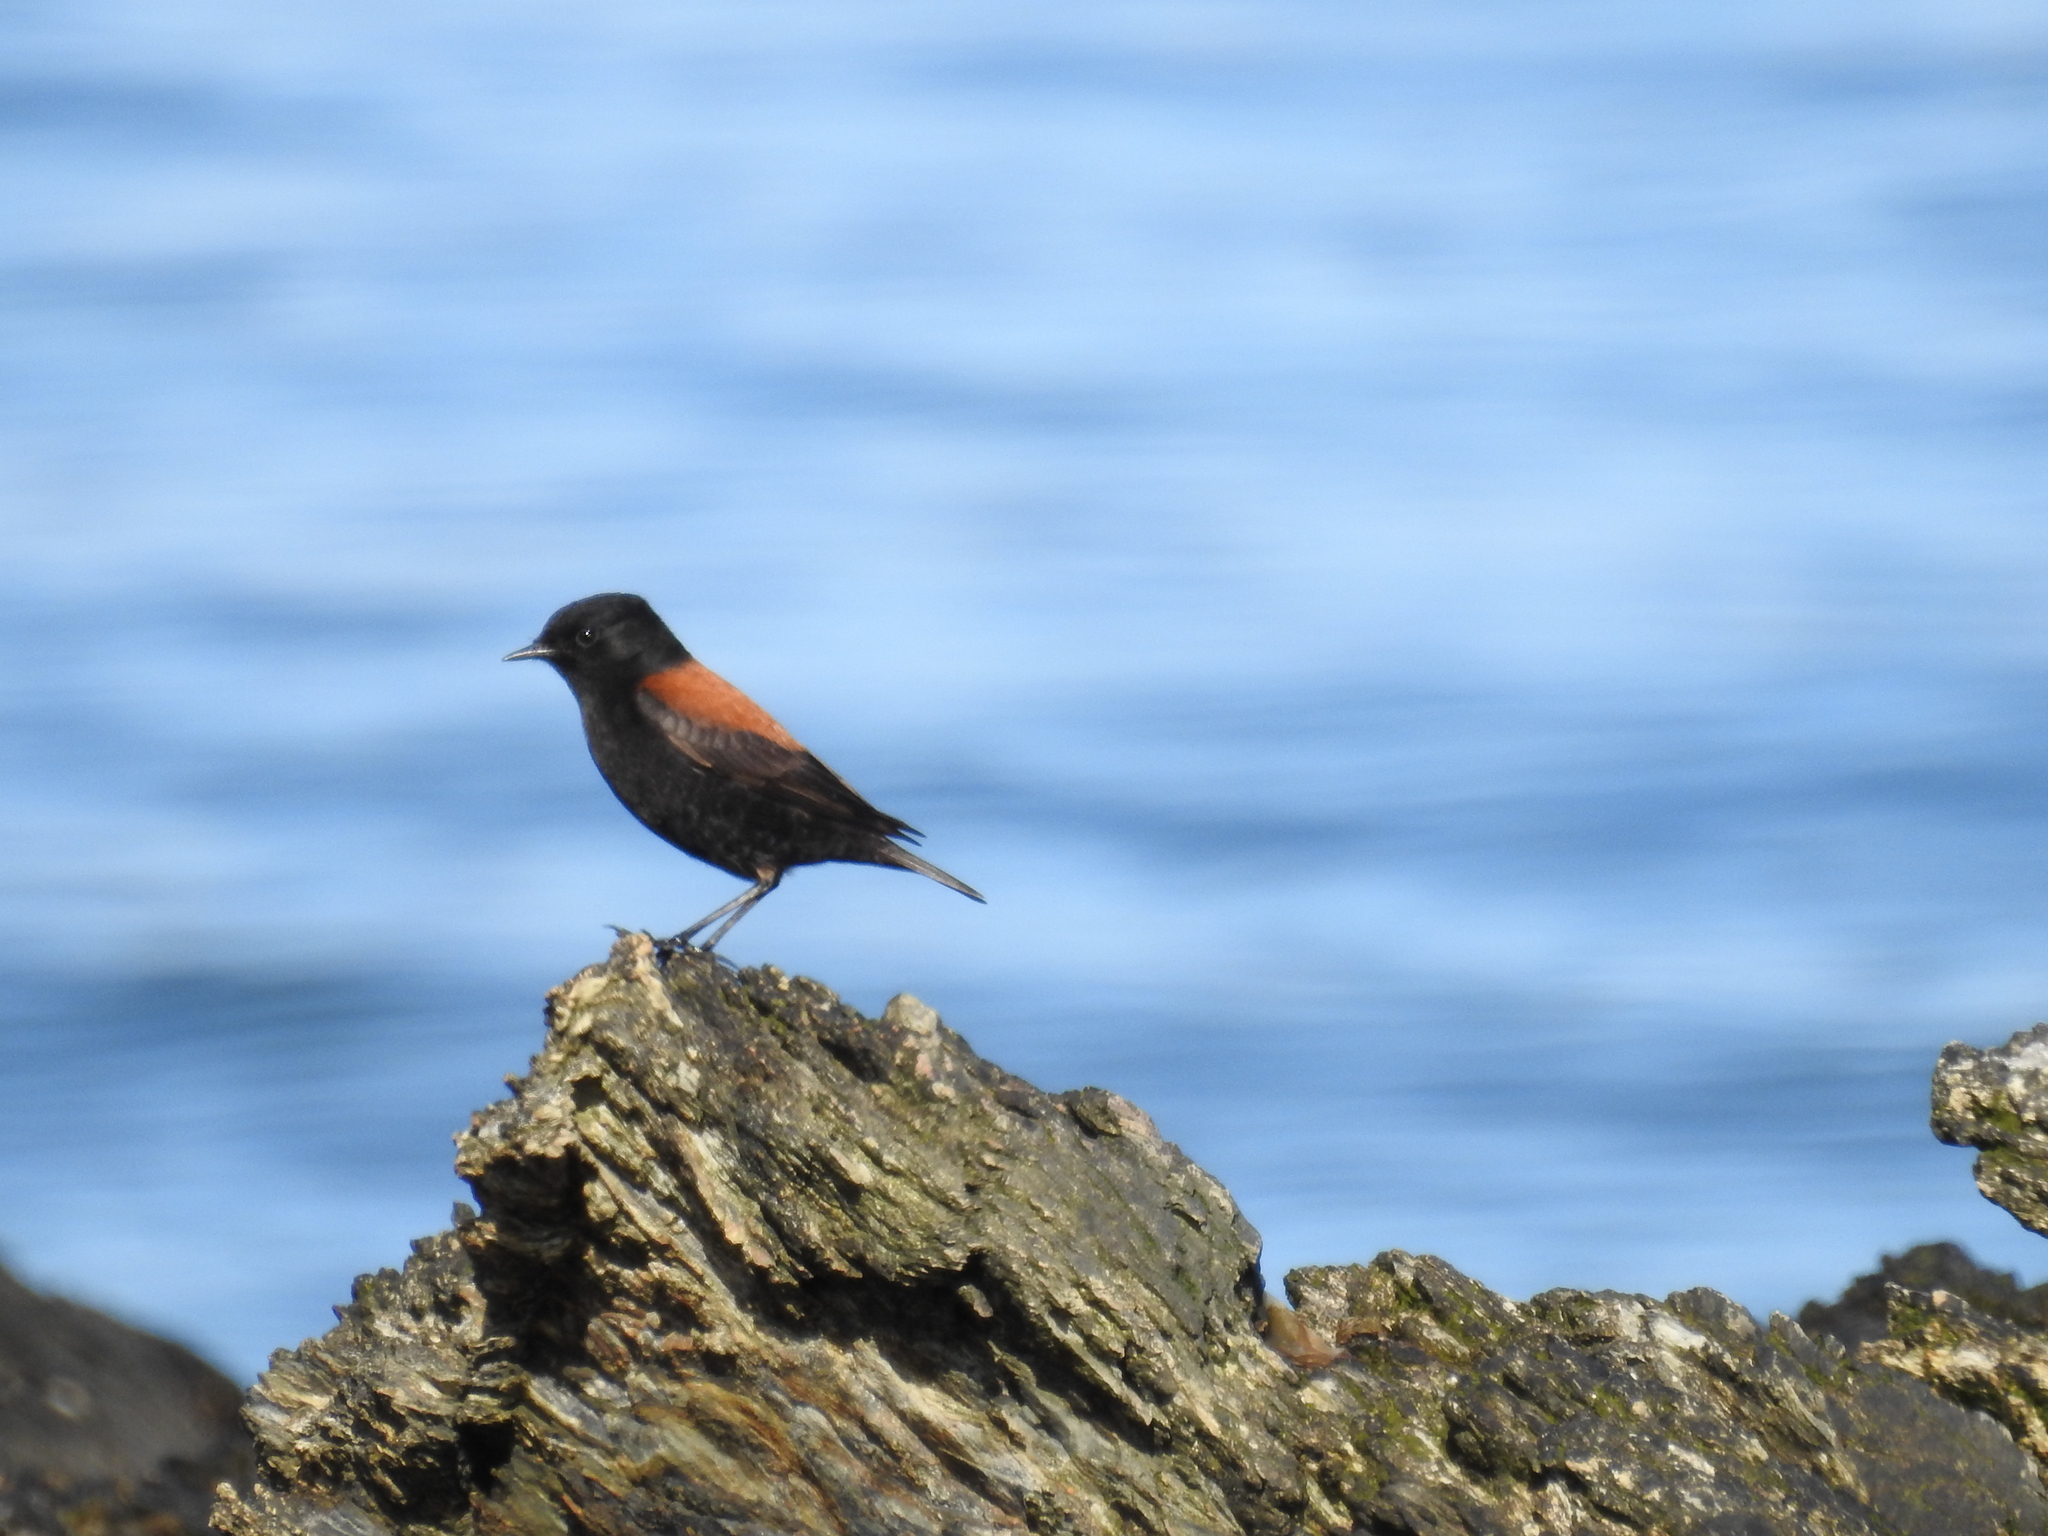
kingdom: Animalia
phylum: Chordata
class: Aves
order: Passeriformes
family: Tyrannidae
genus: Lessonia
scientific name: Lessonia rufa
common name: Austral negrito
